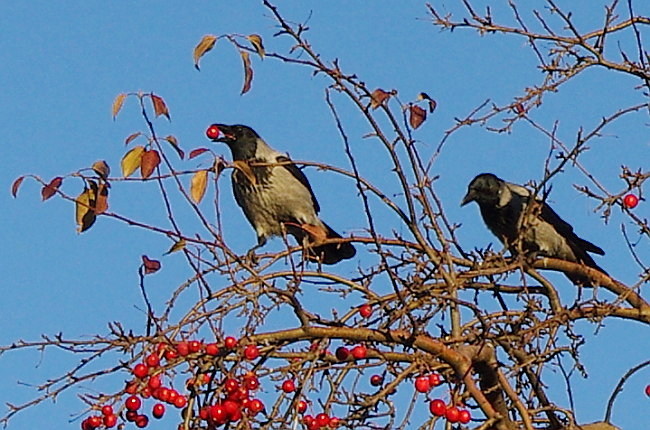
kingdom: Animalia
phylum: Chordata
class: Aves
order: Passeriformes
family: Corvidae
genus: Corvus
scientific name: Corvus cornix
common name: Hooded crow
